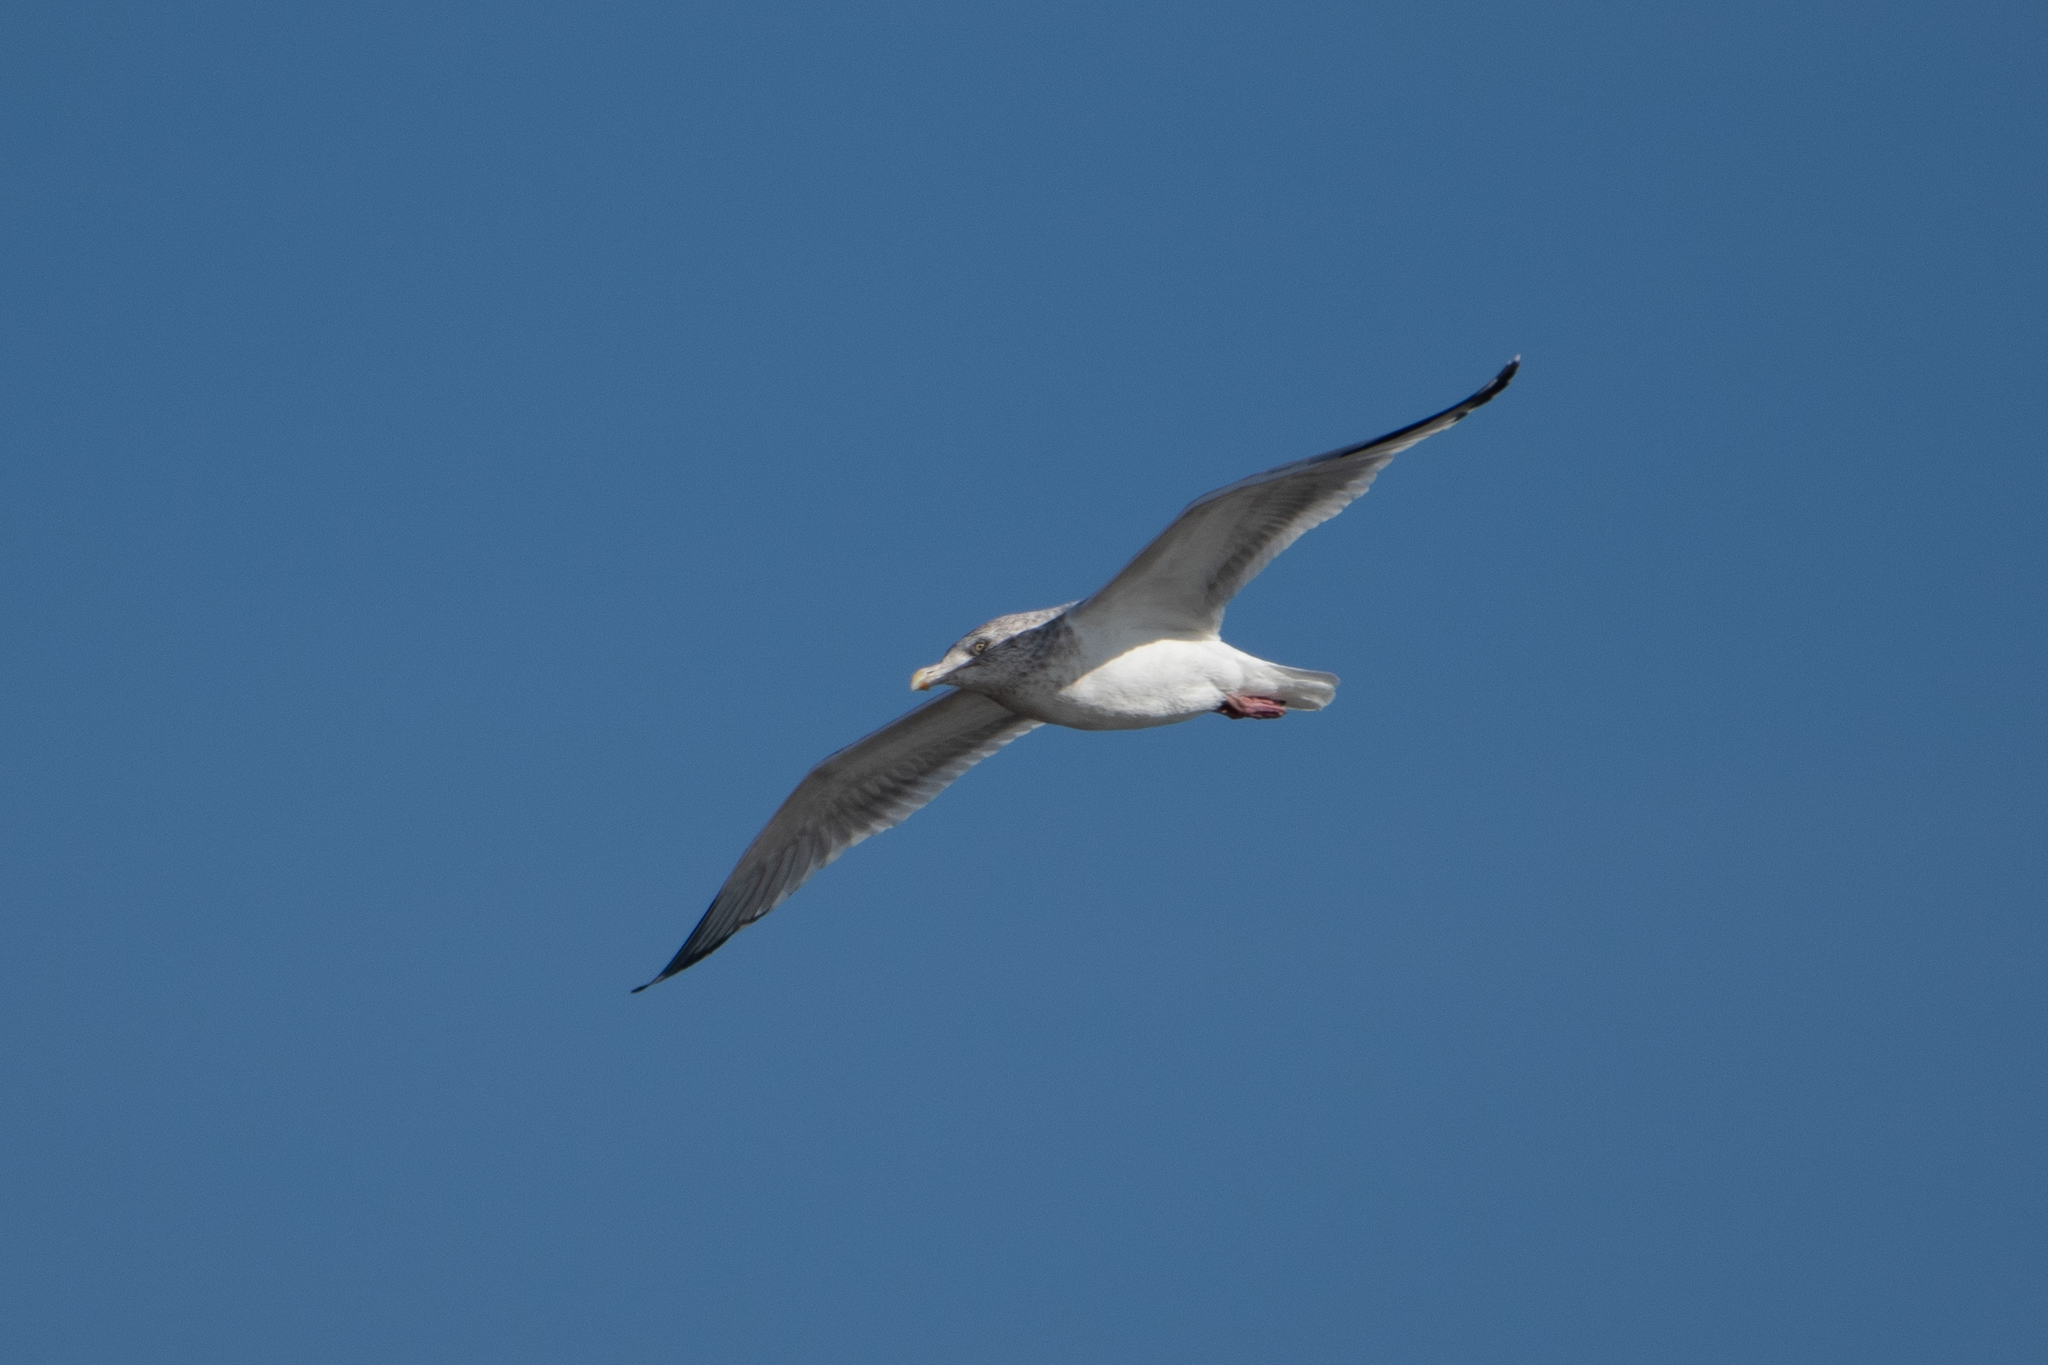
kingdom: Animalia
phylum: Chordata
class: Aves
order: Charadriiformes
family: Laridae
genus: Larus
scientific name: Larus argentatus
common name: Herring gull
